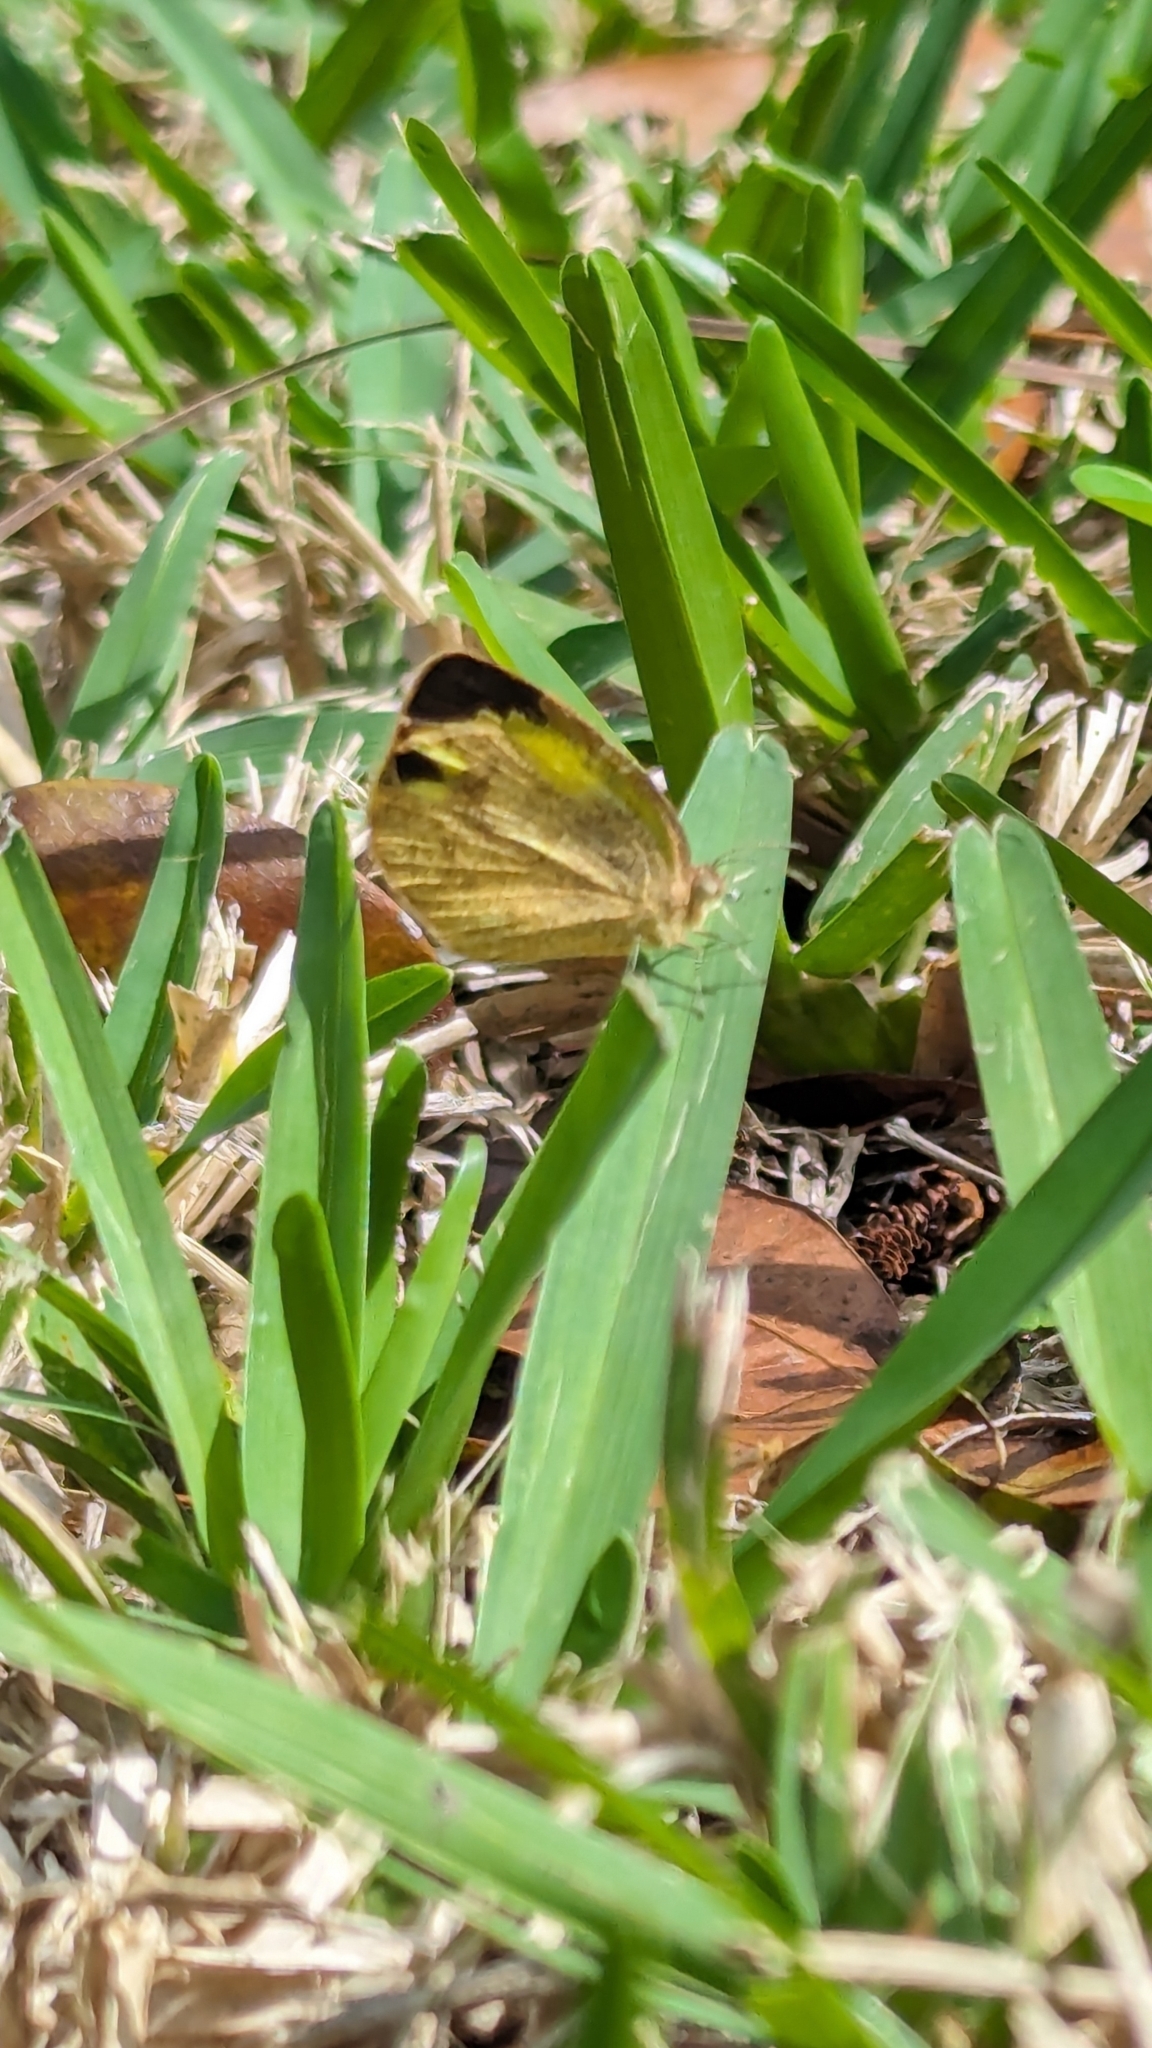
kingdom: Animalia
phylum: Arthropoda
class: Insecta
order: Lepidoptera
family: Pieridae
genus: Eurema
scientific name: Eurema daira
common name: Barred sulphur
